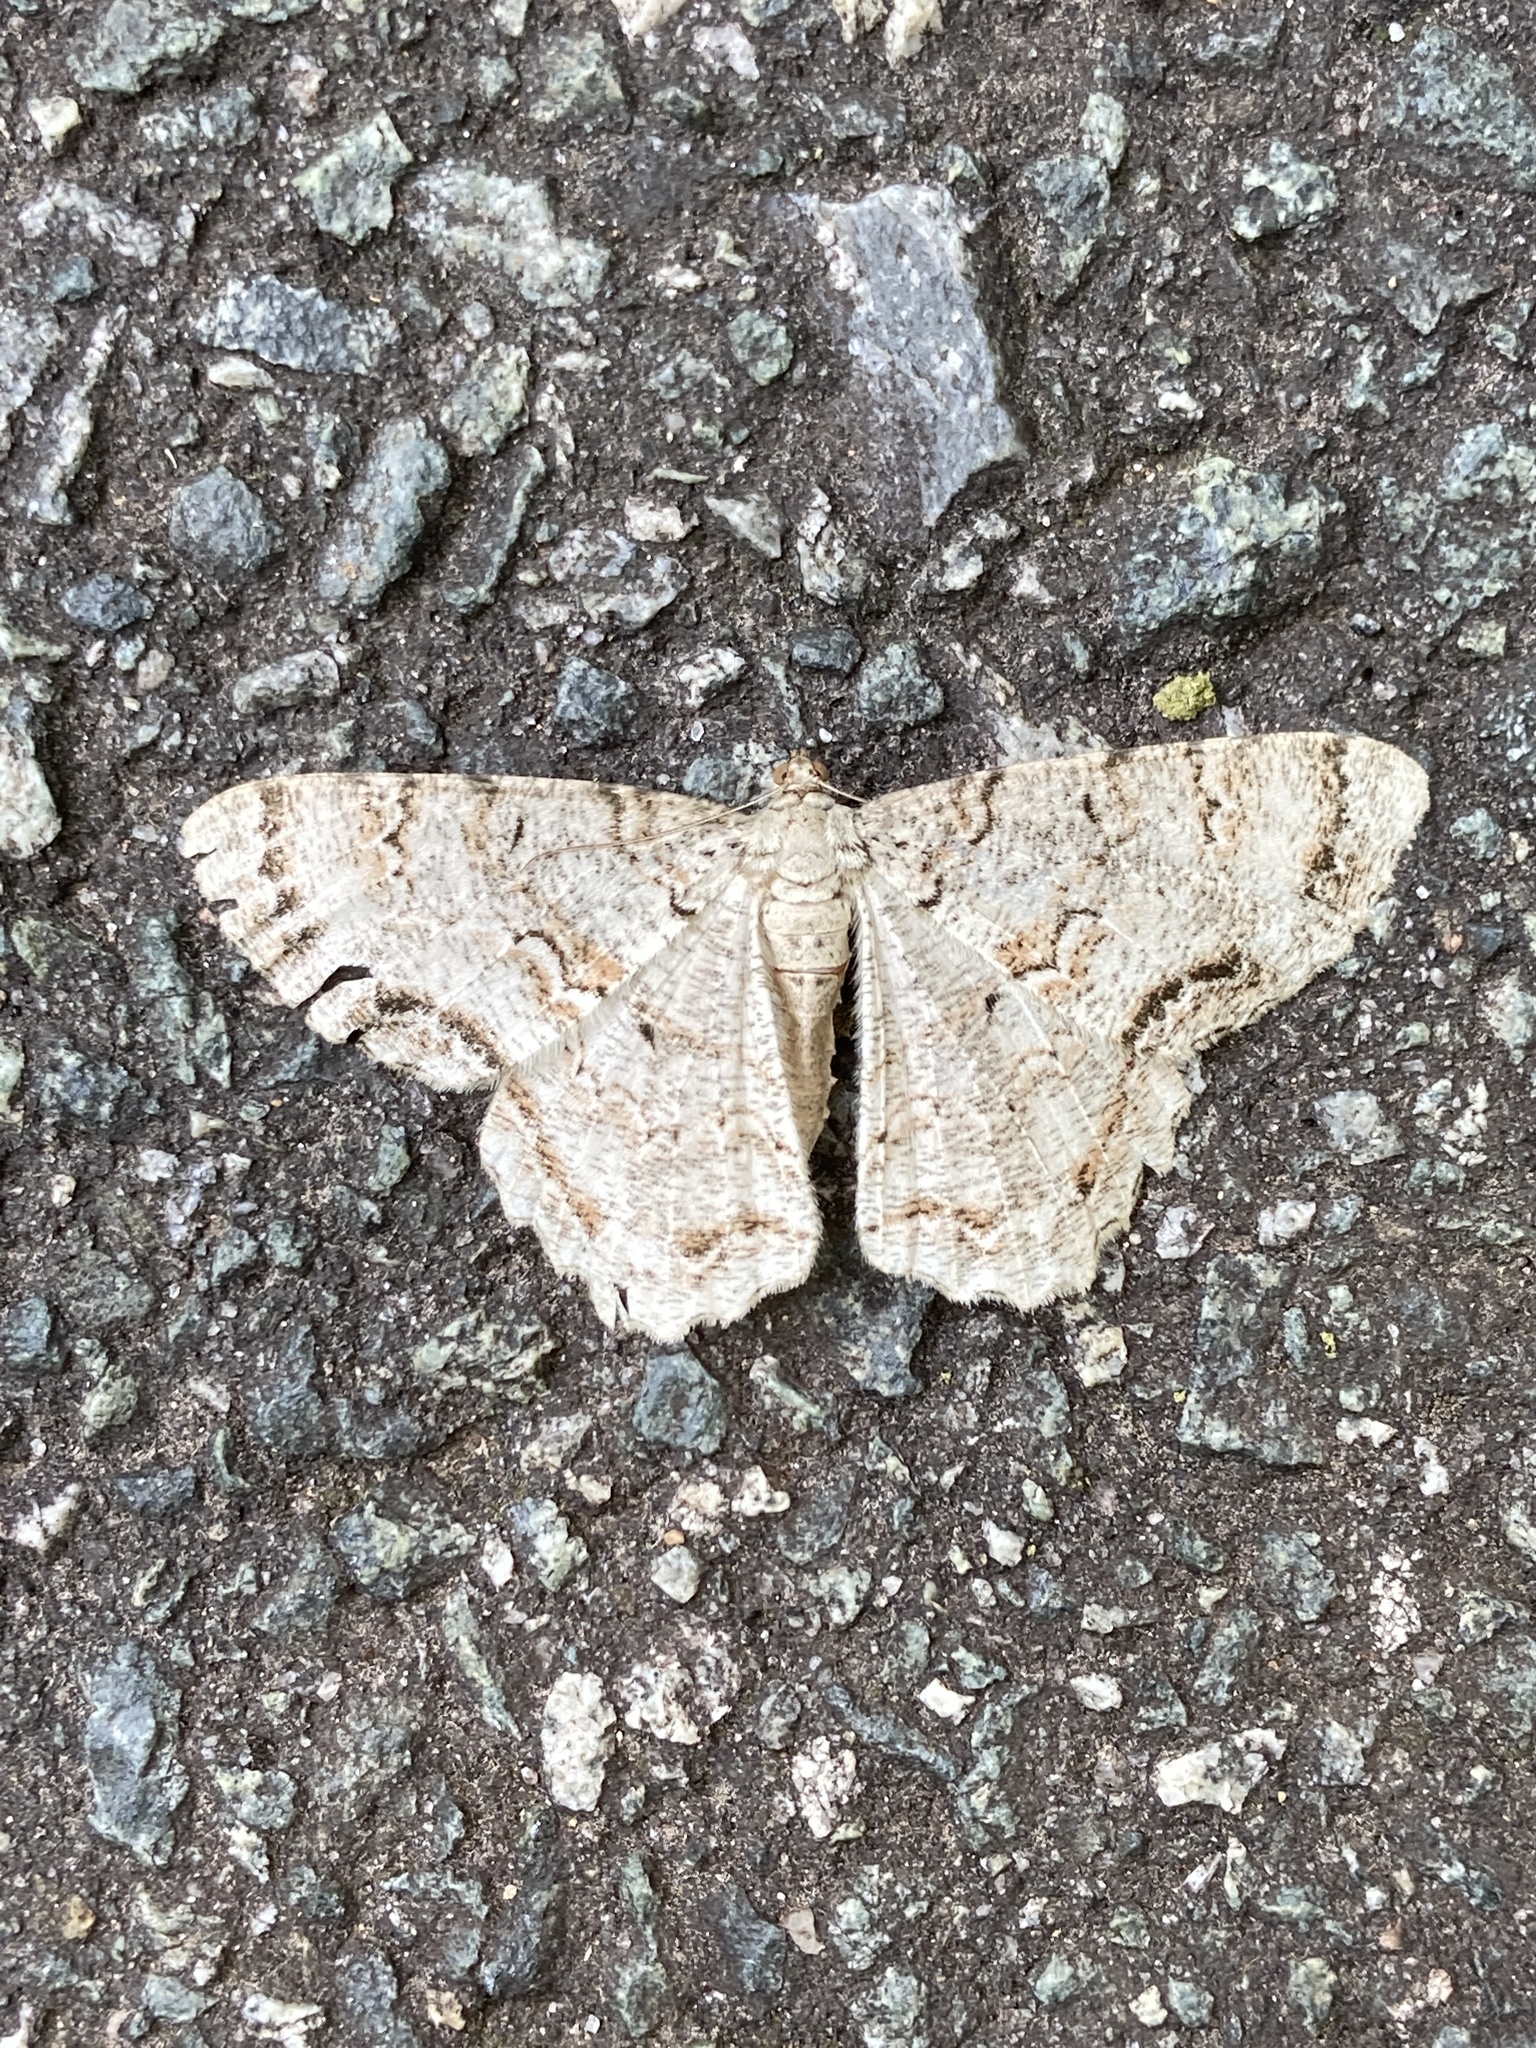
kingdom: Animalia
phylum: Arthropoda
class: Insecta
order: Lepidoptera
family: Geometridae
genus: Epimecis
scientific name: Epimecis hortaria
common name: Tulip-tree beauty
